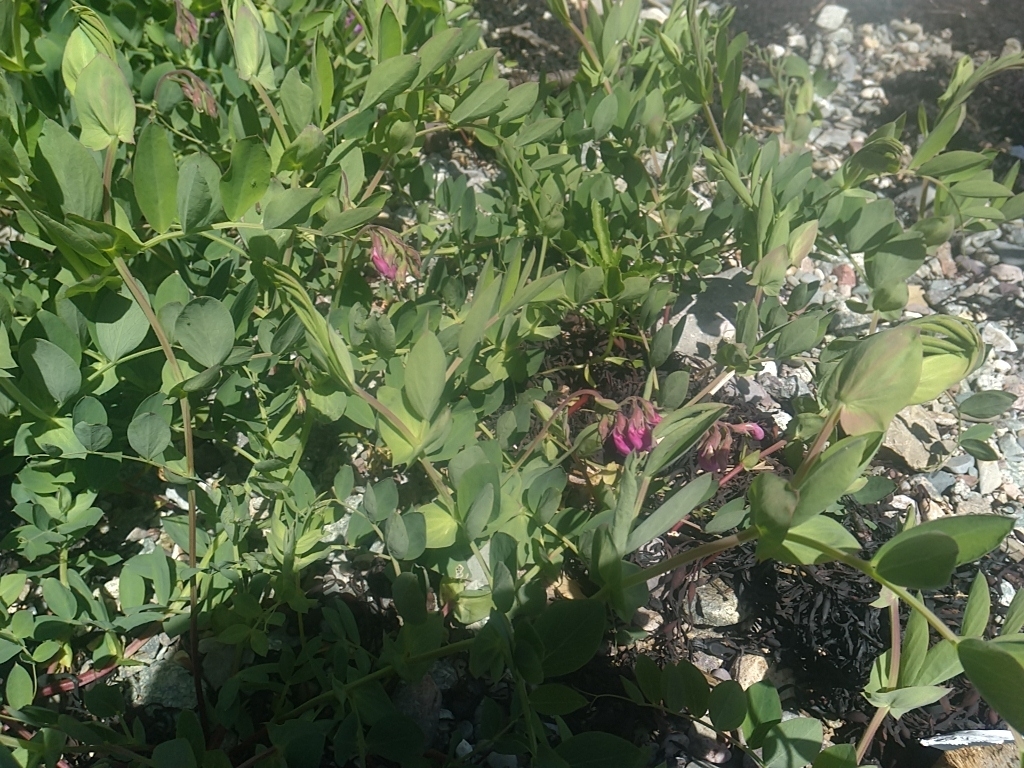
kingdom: Plantae
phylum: Tracheophyta
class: Magnoliopsida
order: Fabales
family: Fabaceae
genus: Lathyrus
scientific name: Lathyrus japonicus
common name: Sea pea
